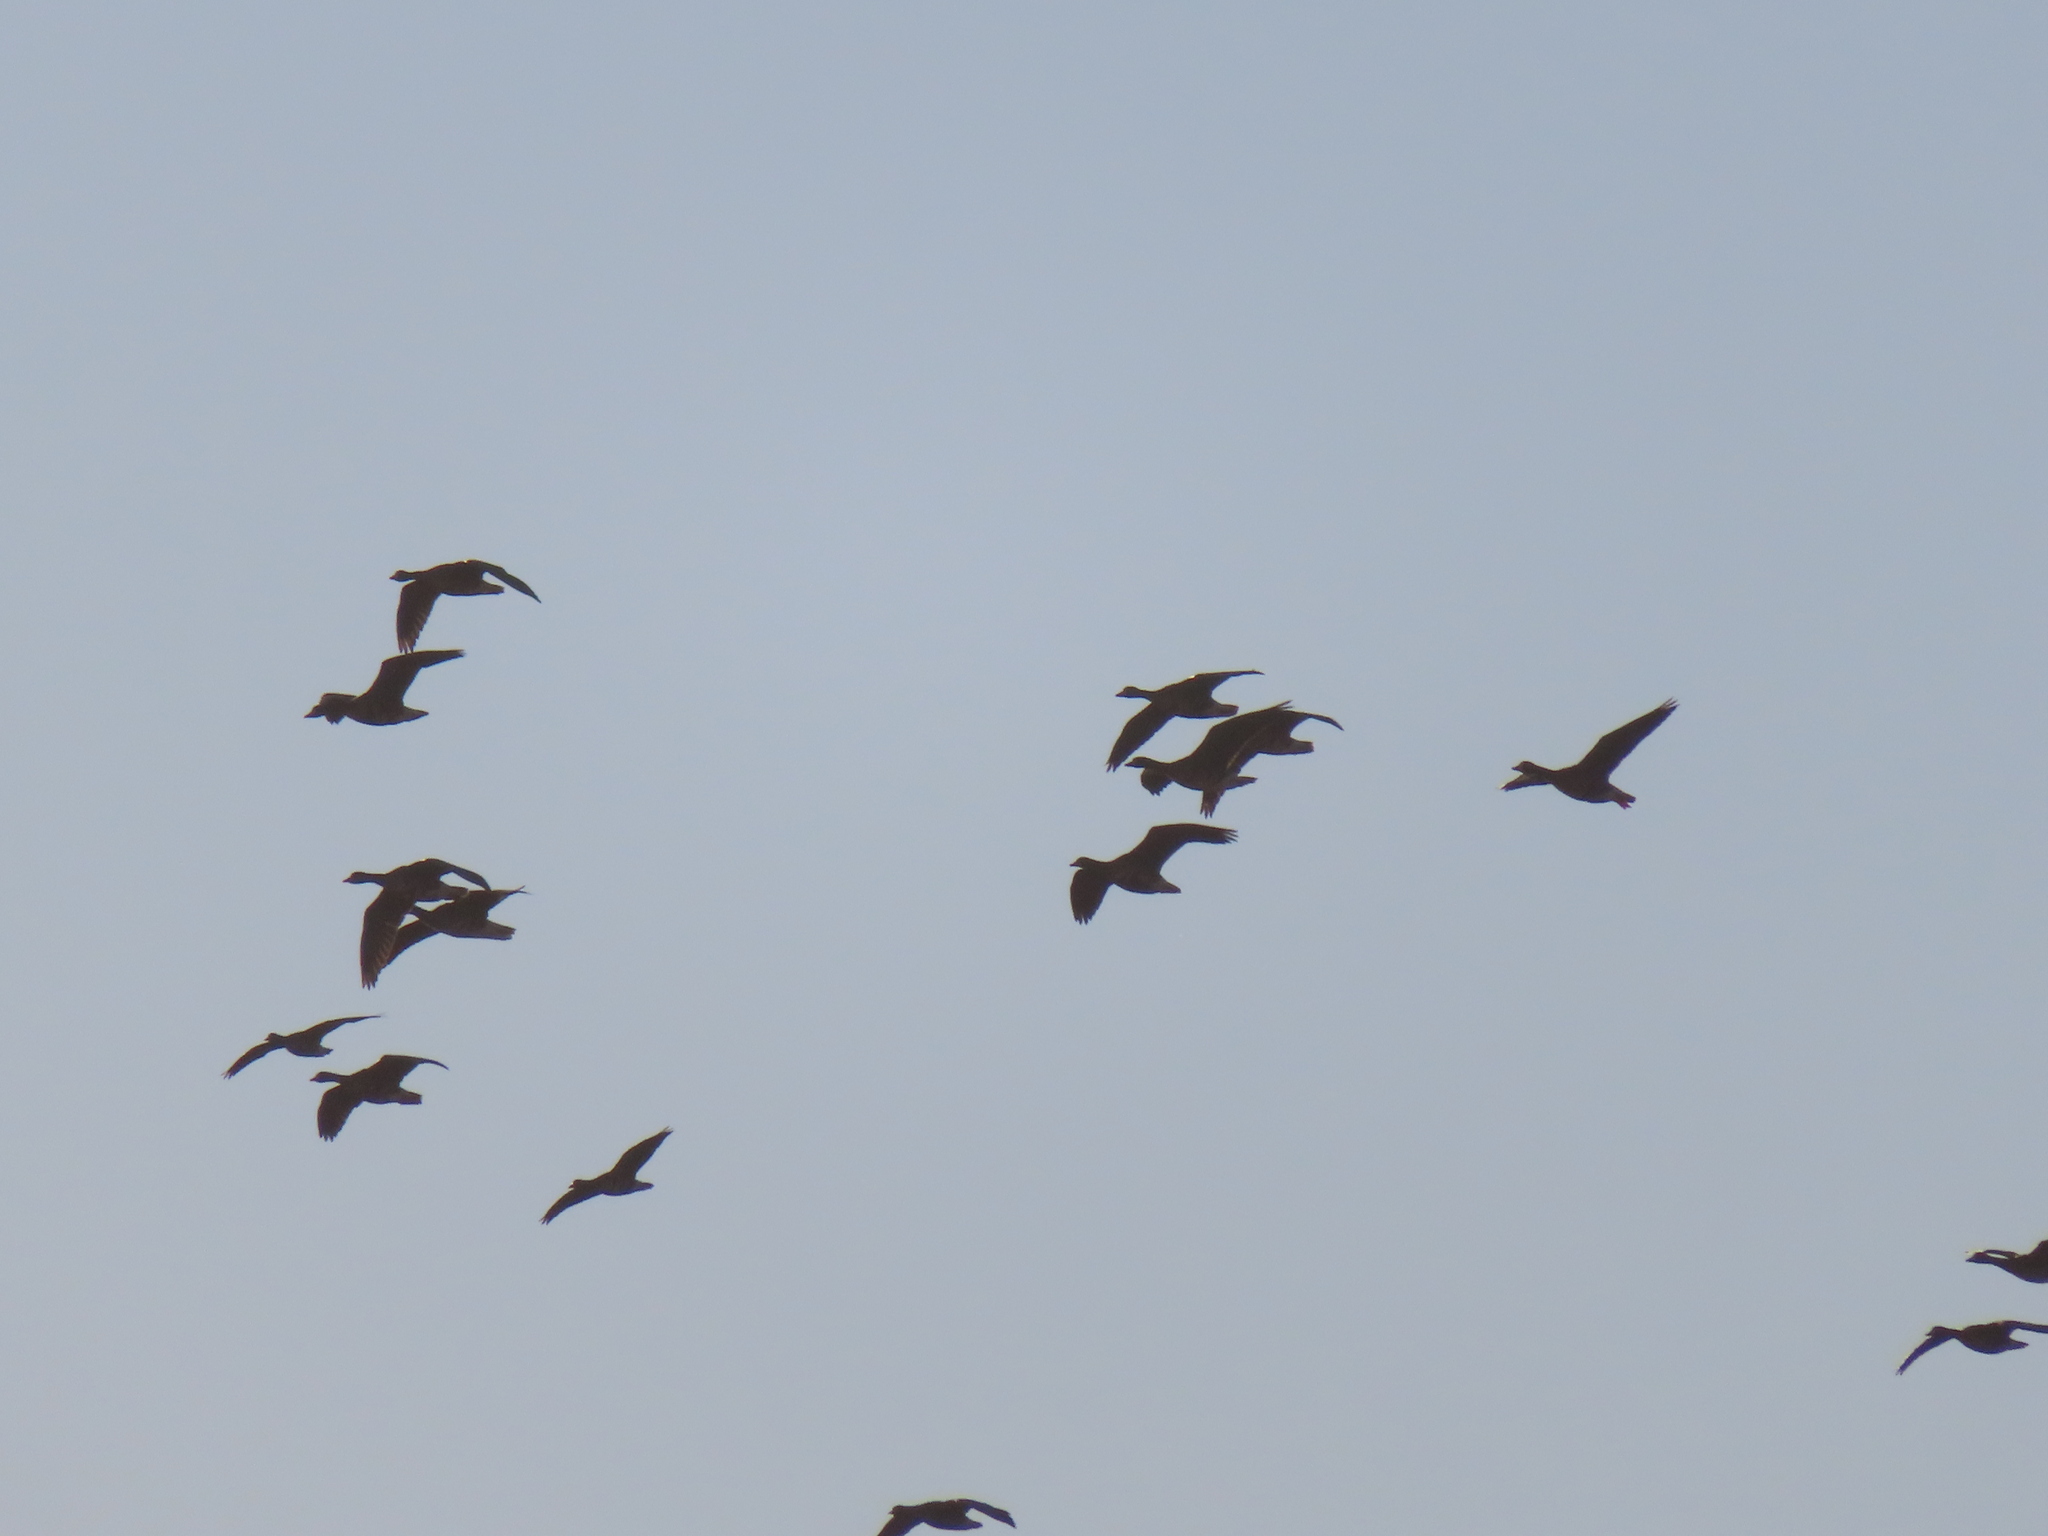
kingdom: Animalia
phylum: Chordata
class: Aves
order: Anseriformes
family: Anatidae
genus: Anser
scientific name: Anser caerulescens
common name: Snow goose
